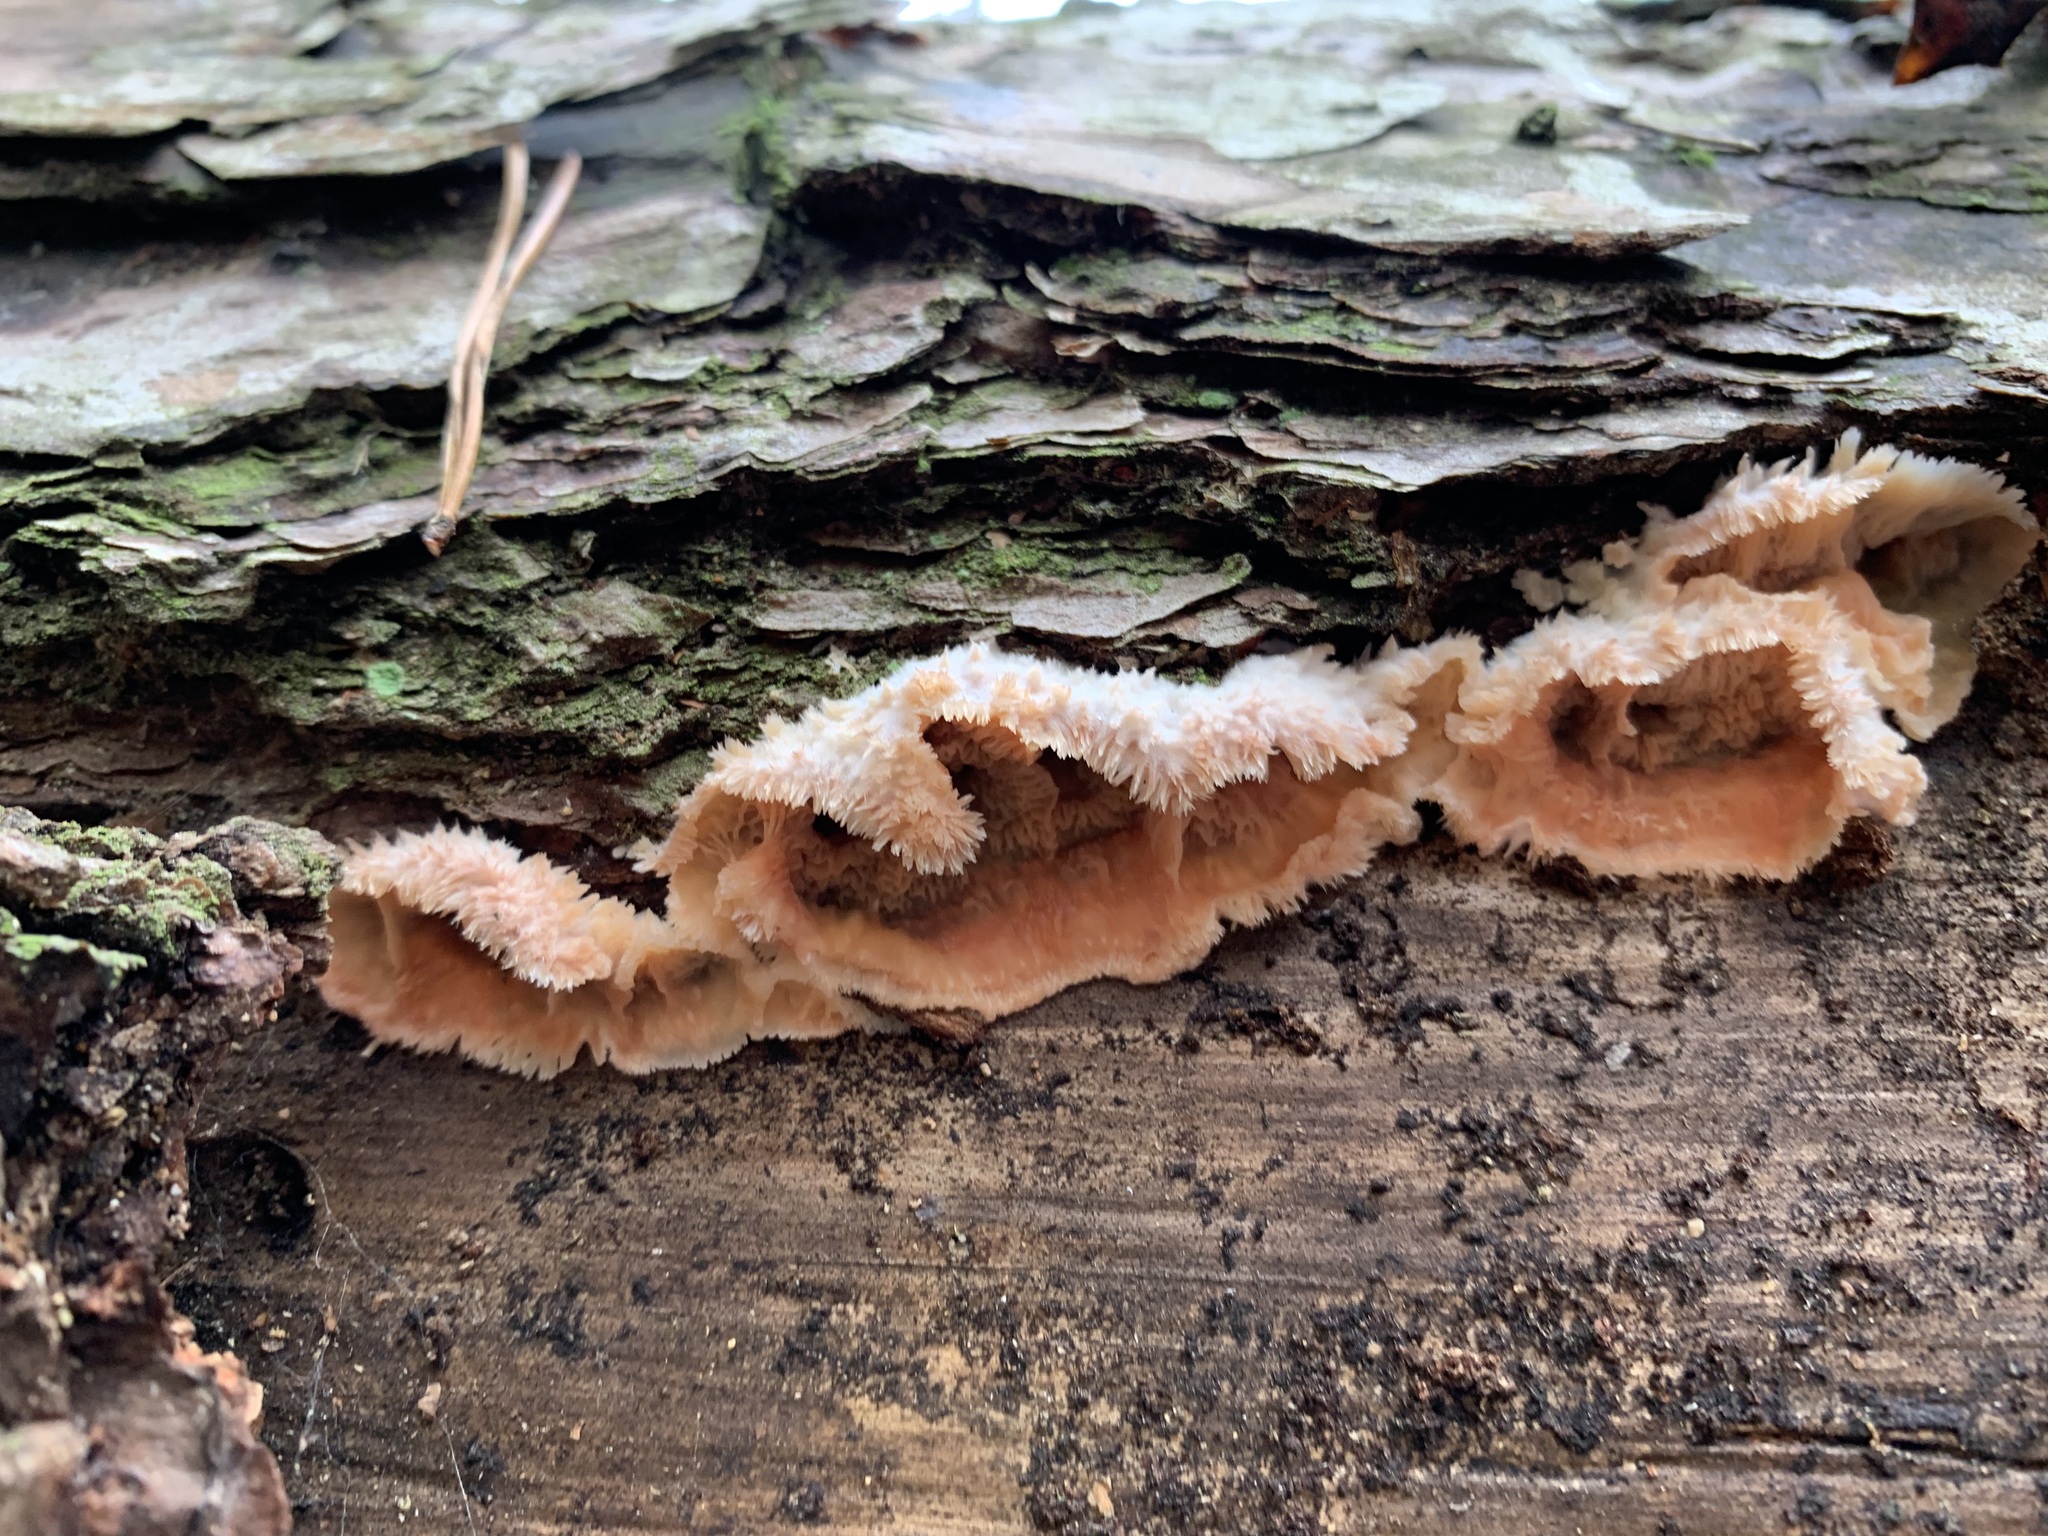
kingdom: Fungi
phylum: Basidiomycota
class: Agaricomycetes
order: Polyporales
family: Meruliaceae
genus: Phlebia
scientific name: Phlebia tremellosa
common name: Jelly rot
